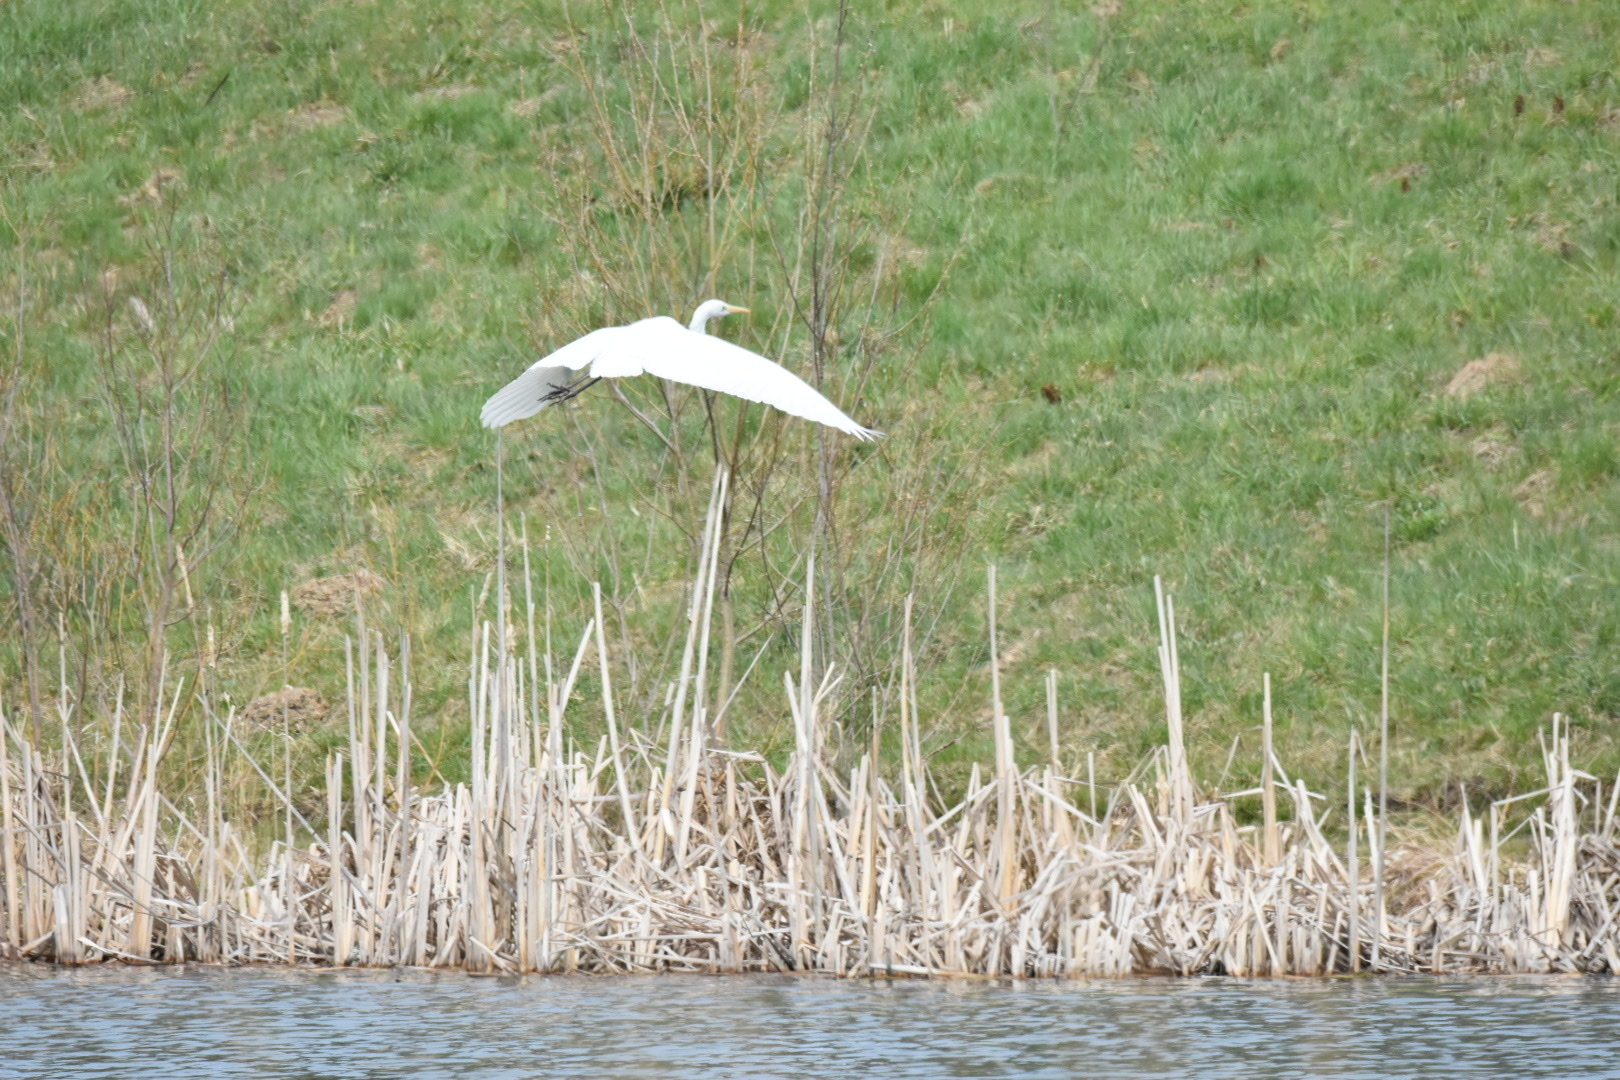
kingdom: Animalia
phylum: Chordata
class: Aves
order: Pelecaniformes
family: Ardeidae
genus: Ardea
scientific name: Ardea alba
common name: Great egret
